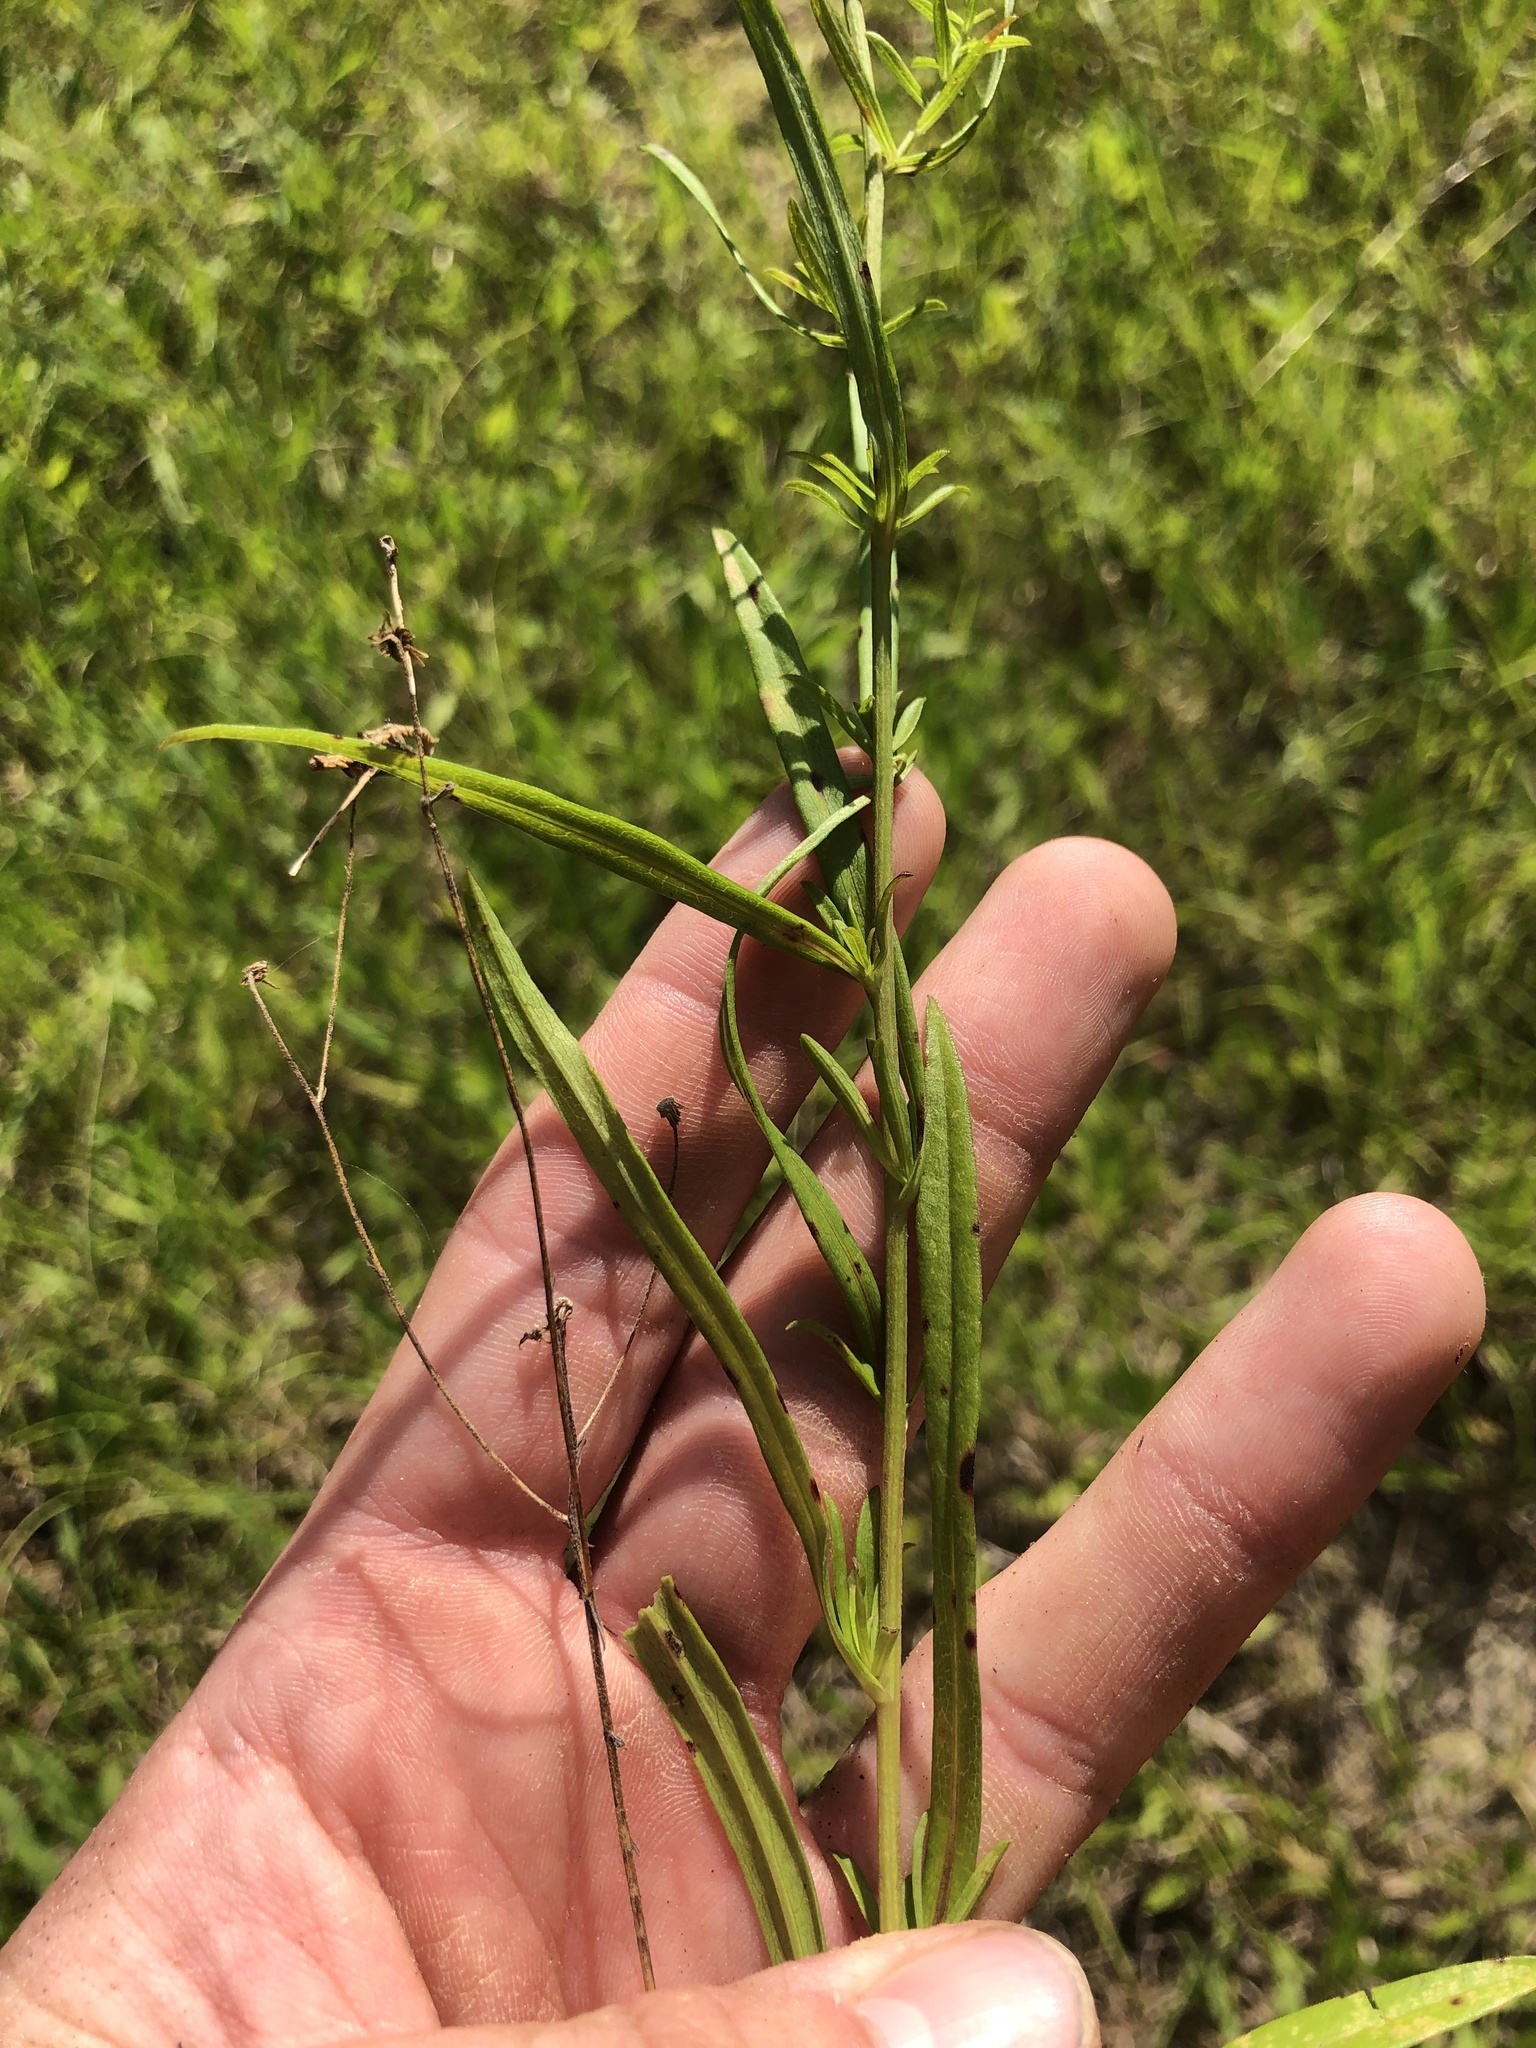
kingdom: Plantae
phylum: Tracheophyta
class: Magnoliopsida
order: Asterales
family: Asteraceae
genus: Symphyotrichum
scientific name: Symphyotrichum dumosum
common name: Bushy aster
